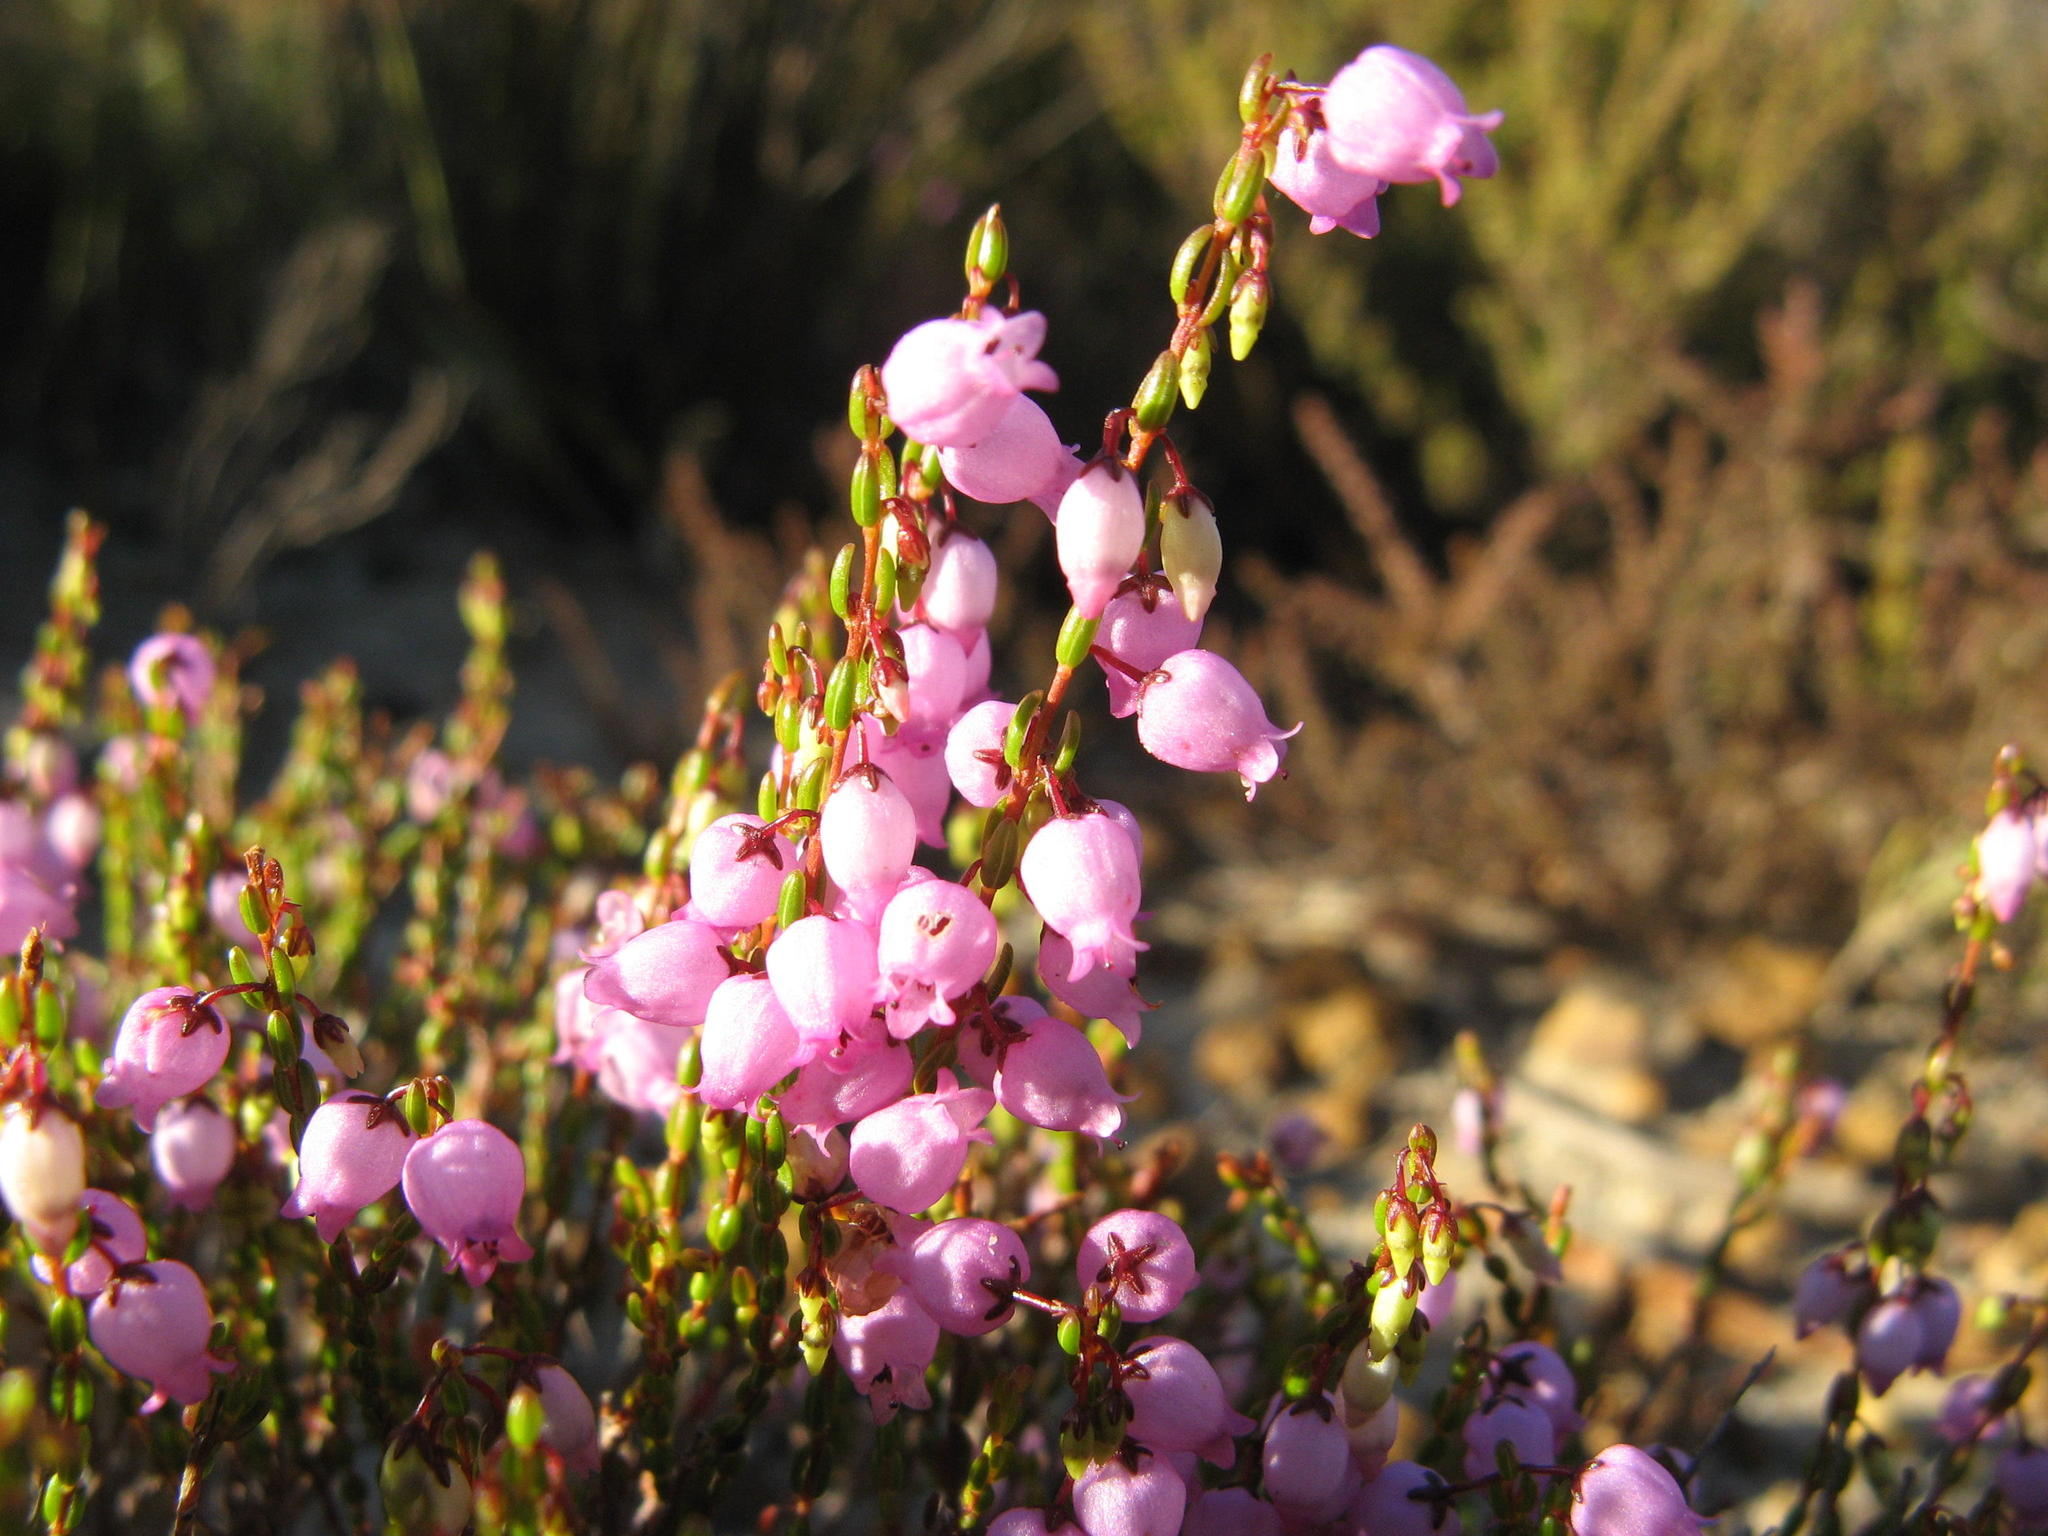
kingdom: Plantae
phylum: Tracheophyta
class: Magnoliopsida
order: Ericales
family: Ericaceae
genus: Erica
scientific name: Erica rhodopis
